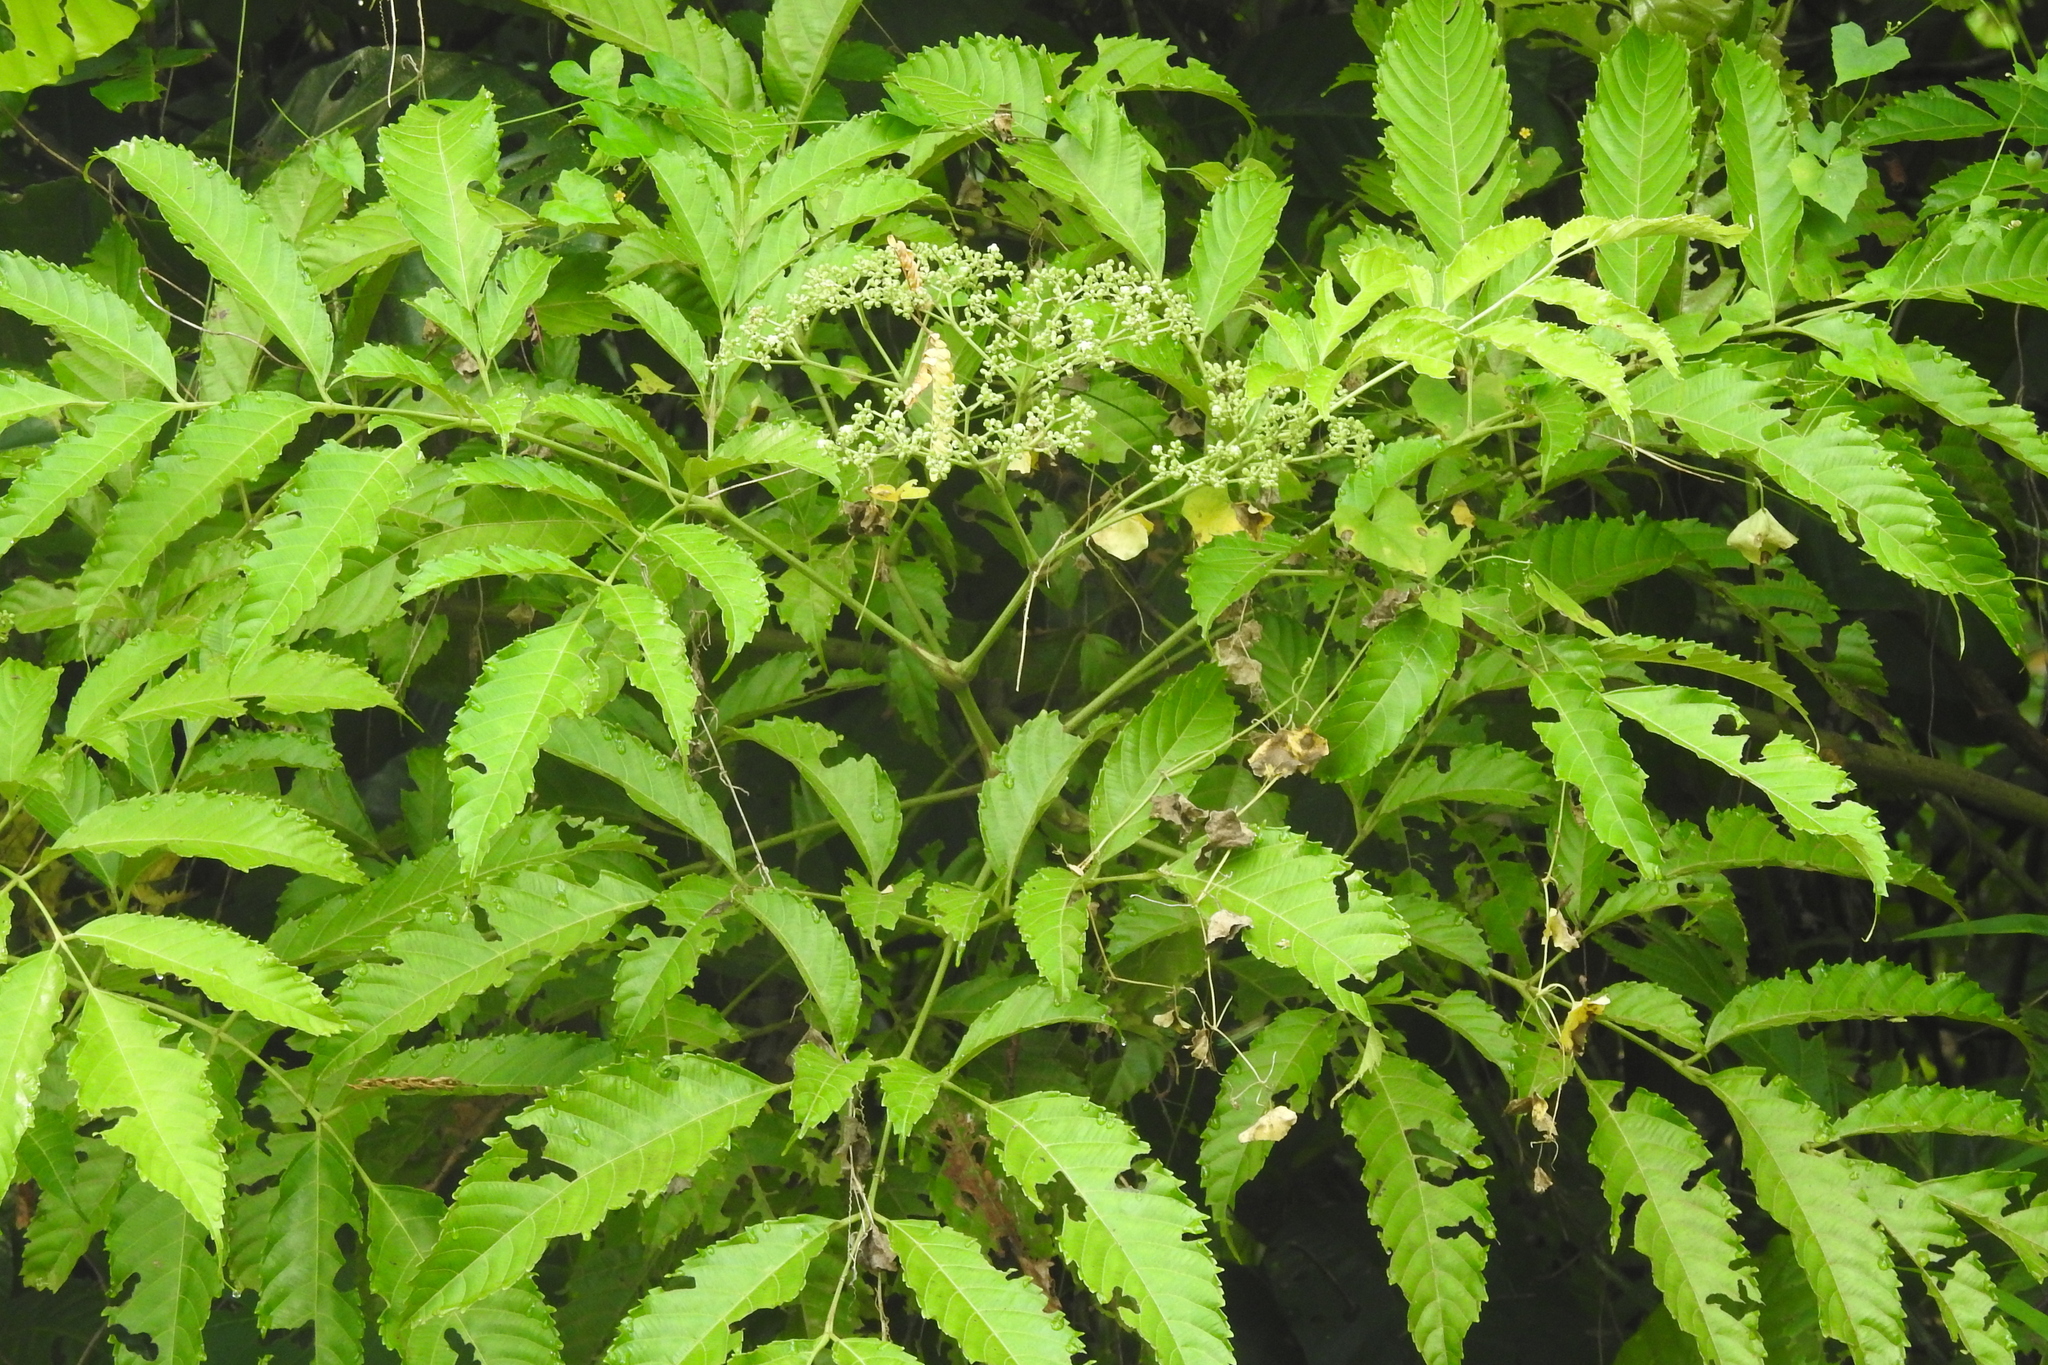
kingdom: Plantae
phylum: Tracheophyta
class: Magnoliopsida
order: Vitales
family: Vitaceae
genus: Leea
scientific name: Leea indica
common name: Bandicoot-berry
